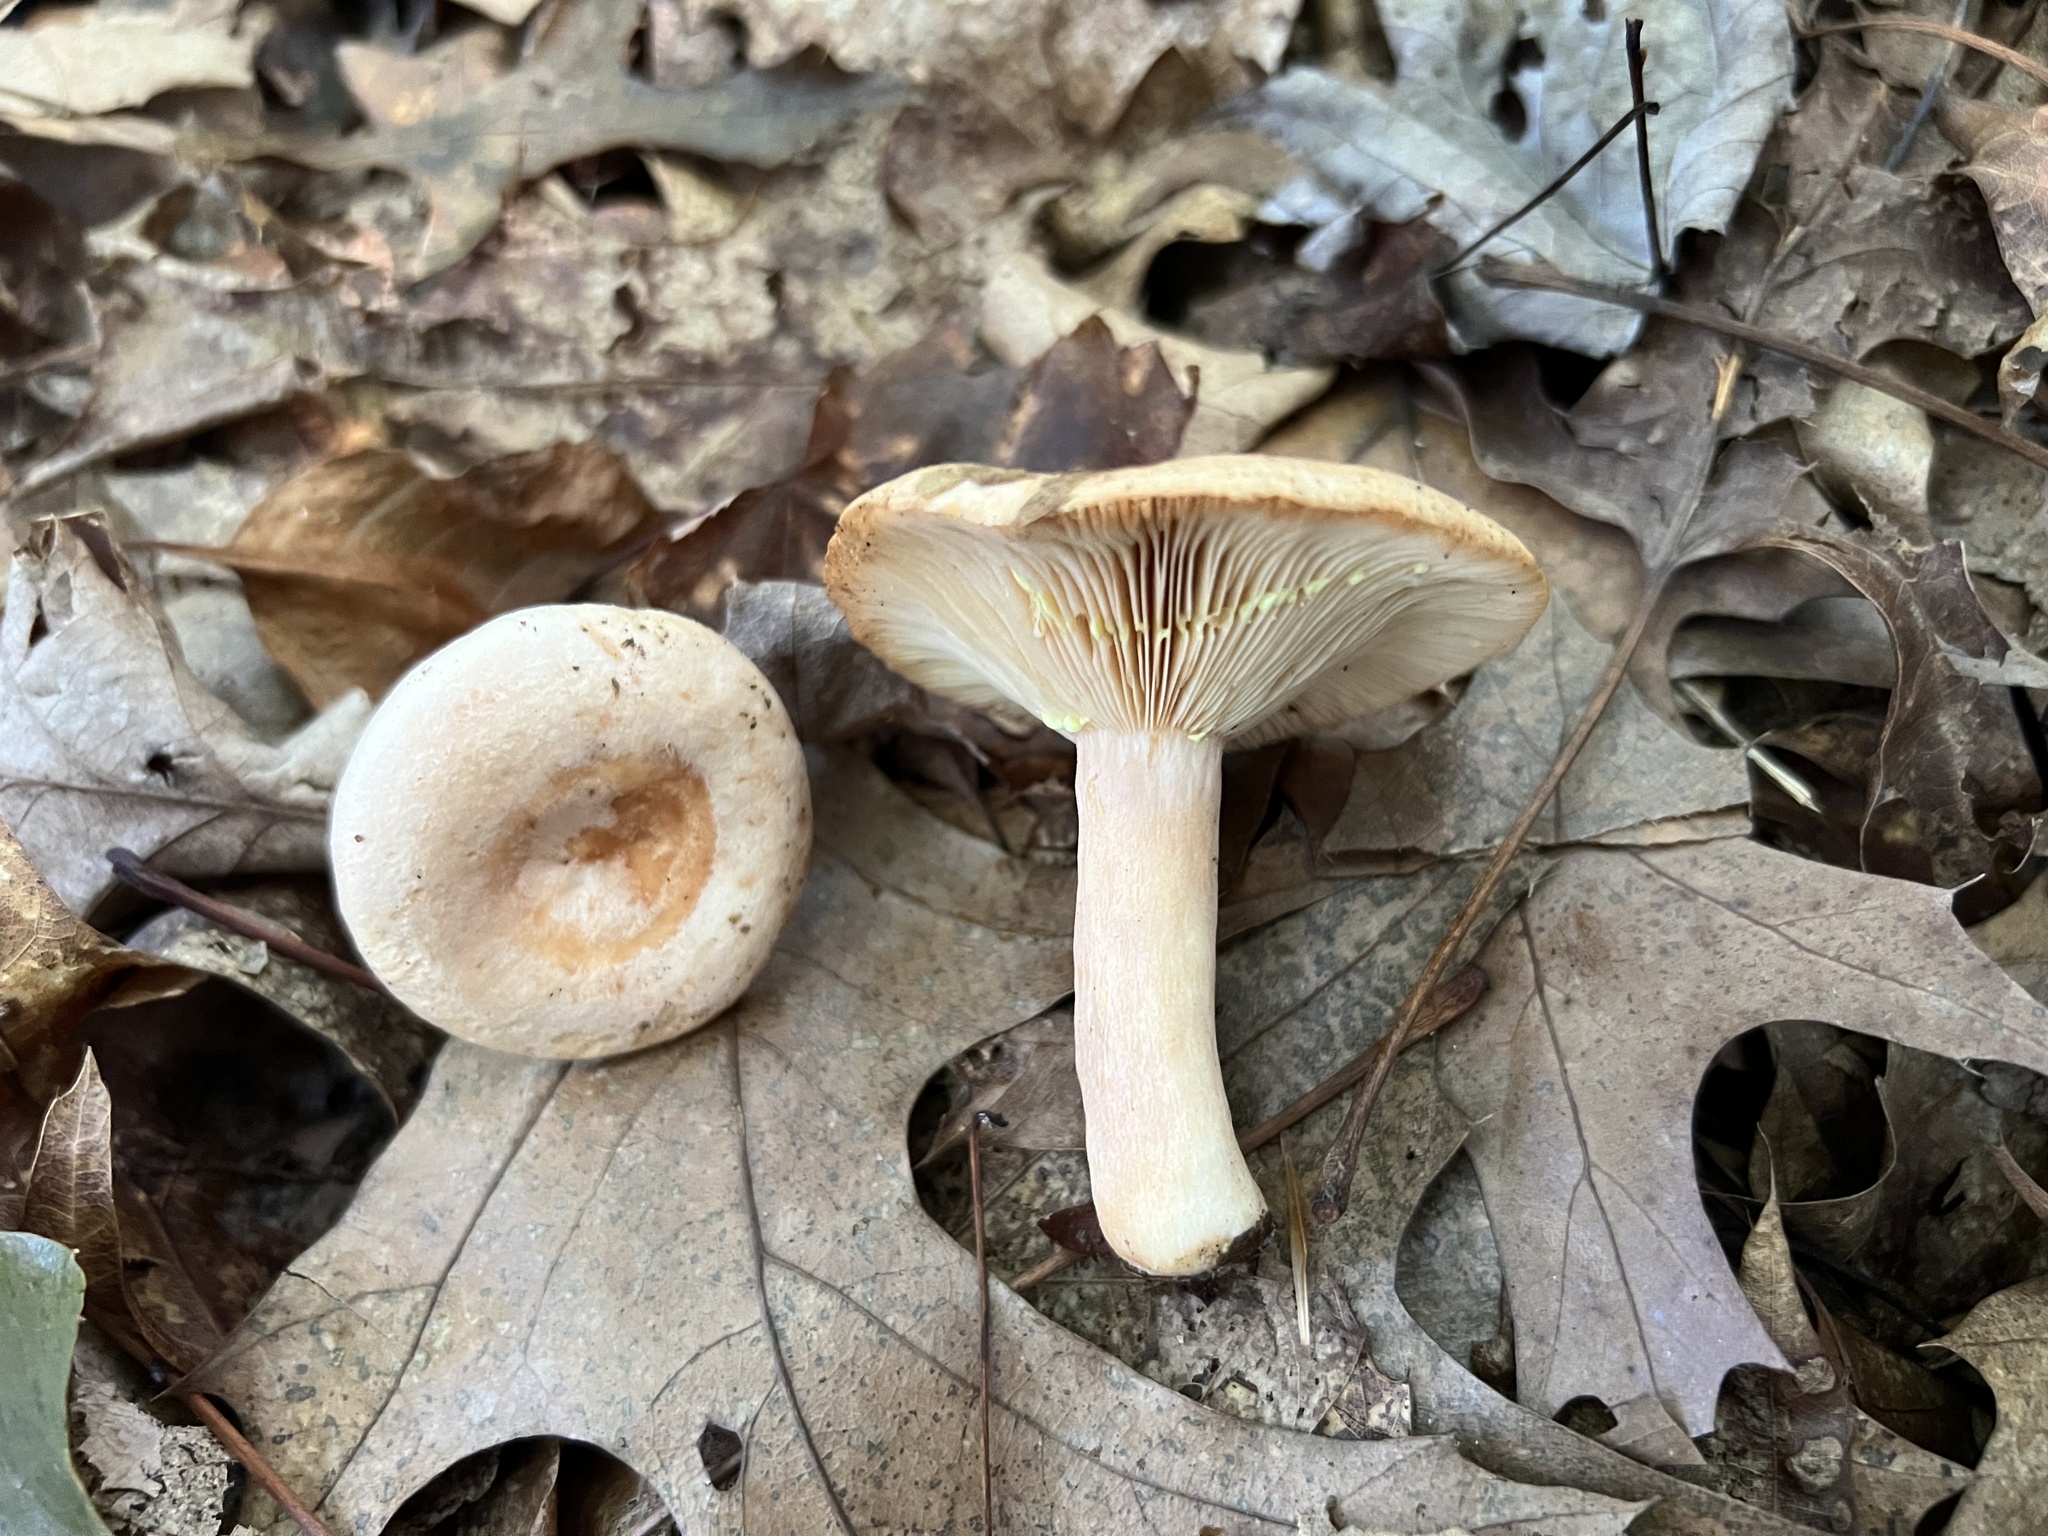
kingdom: Fungi
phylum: Basidiomycota
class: Agaricomycetes
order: Russulales
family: Russulaceae
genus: Lactarius
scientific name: Lactarius chrysorrheus
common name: Yellowdrop milkcap
